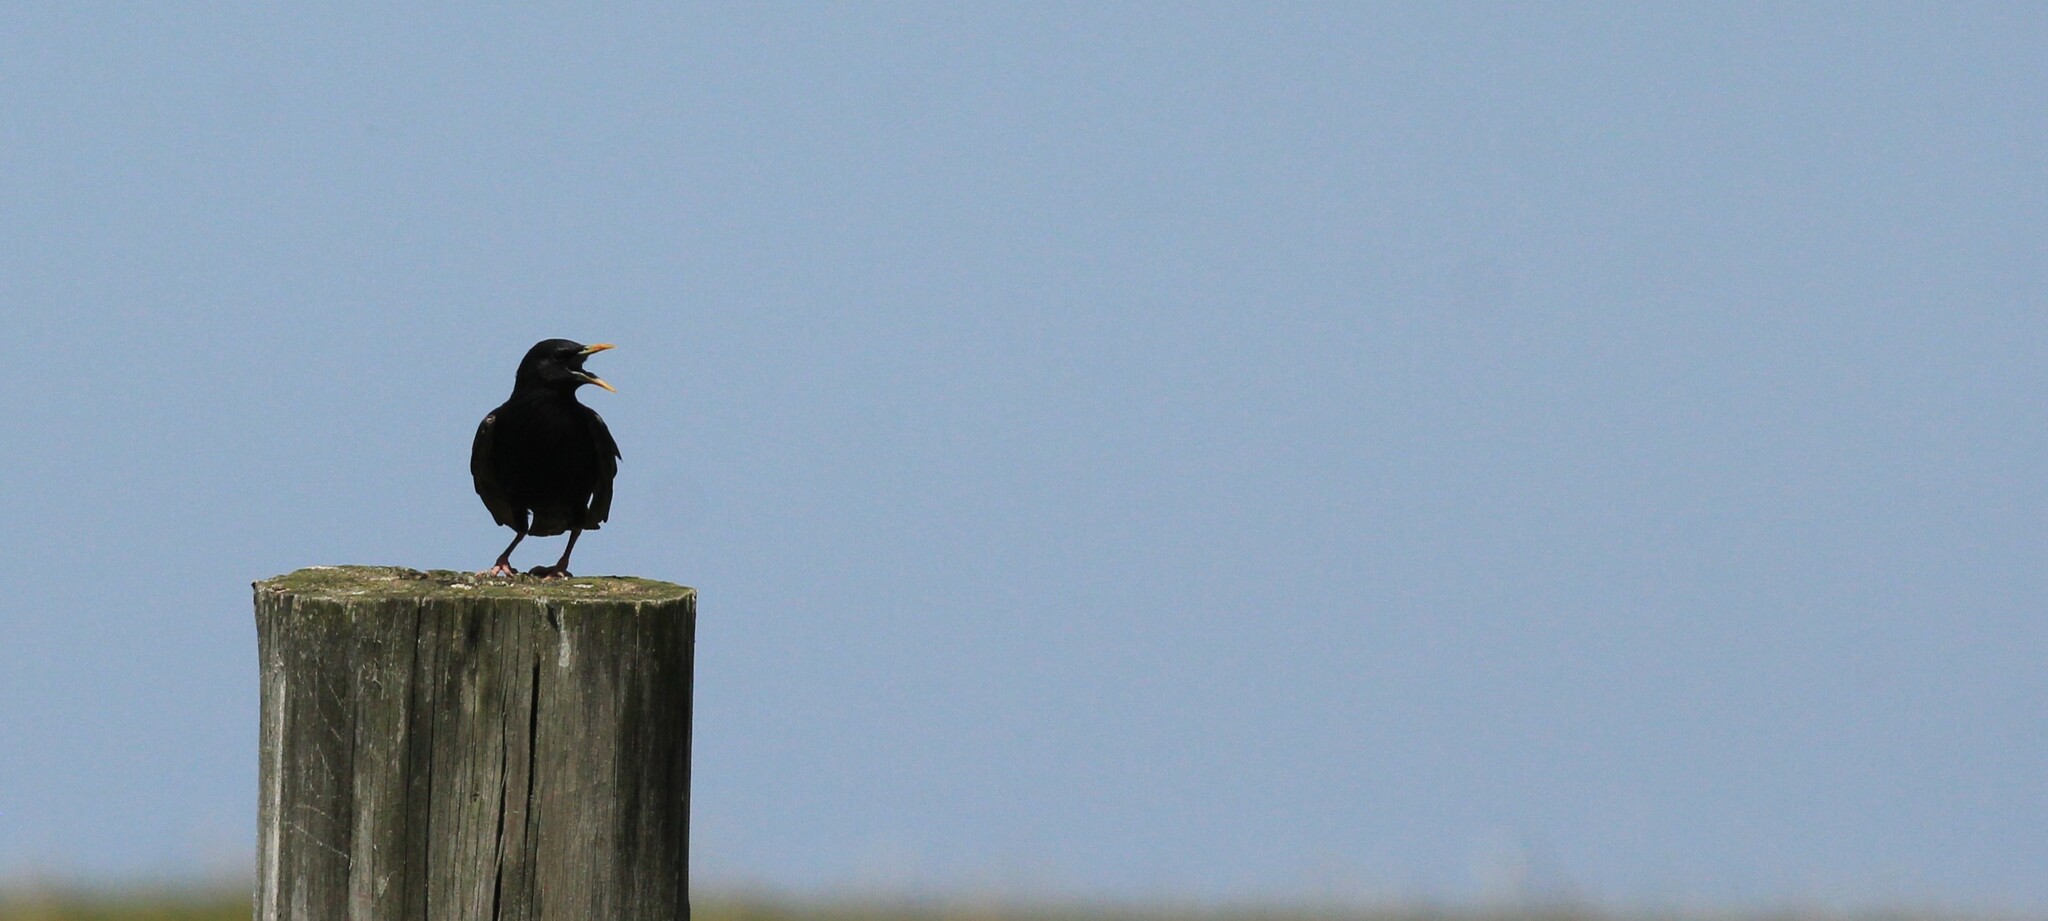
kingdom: Animalia
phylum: Chordata
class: Aves
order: Passeriformes
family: Sturnidae
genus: Sturnus
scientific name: Sturnus vulgaris
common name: Common starling
